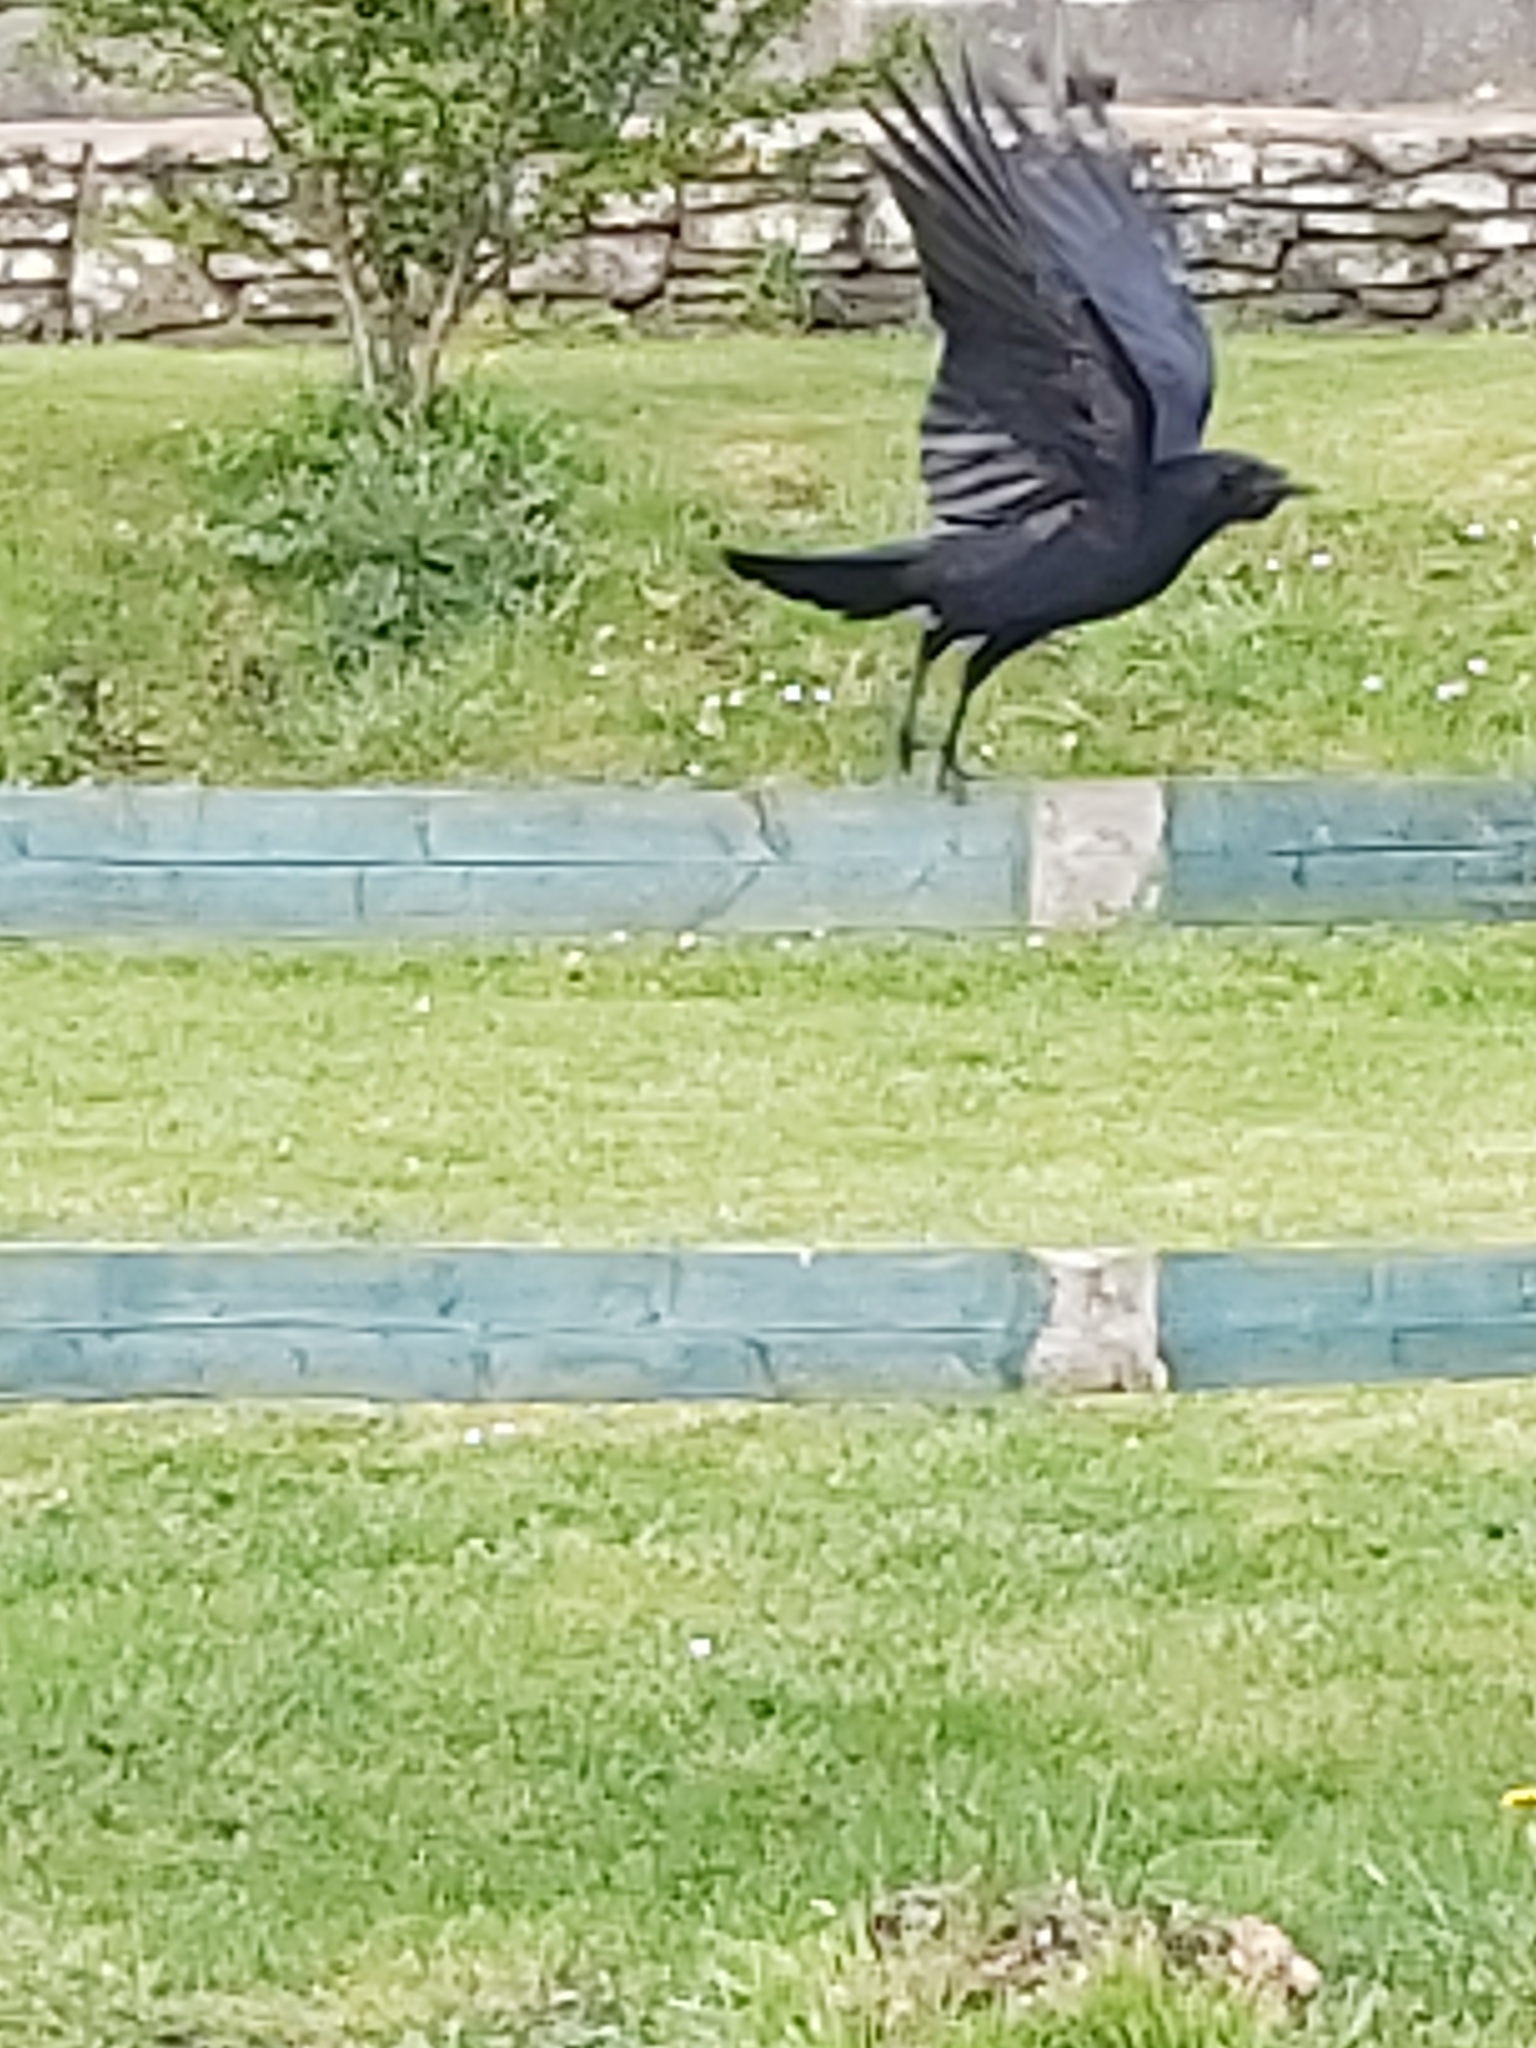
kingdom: Animalia
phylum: Chordata
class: Aves
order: Passeriformes
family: Corvidae
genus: Corvus
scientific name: Corvus corone
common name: Carrion crow
